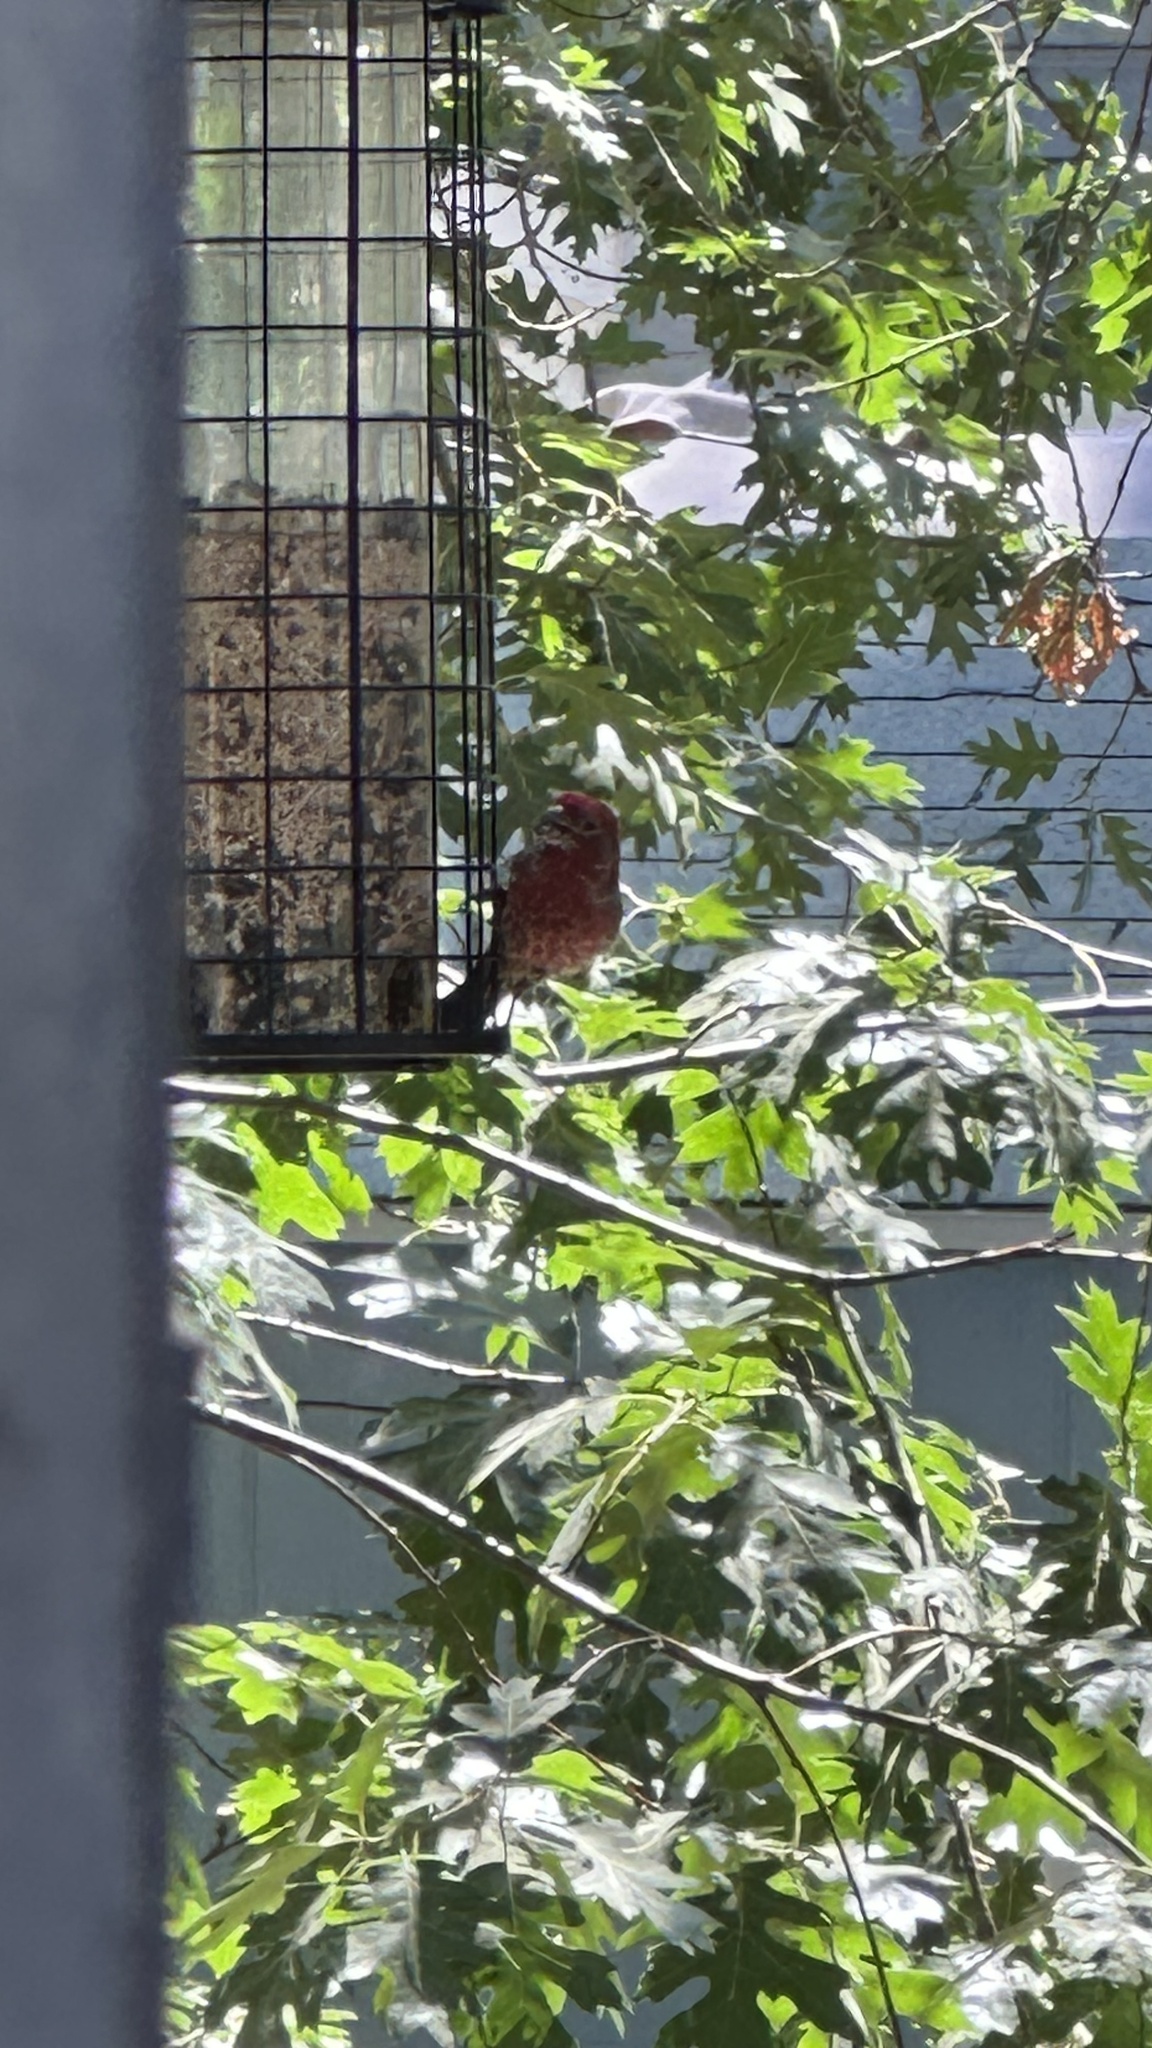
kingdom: Animalia
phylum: Chordata
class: Aves
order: Passeriformes
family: Fringillidae
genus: Haemorhous
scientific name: Haemorhous mexicanus
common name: House finch
